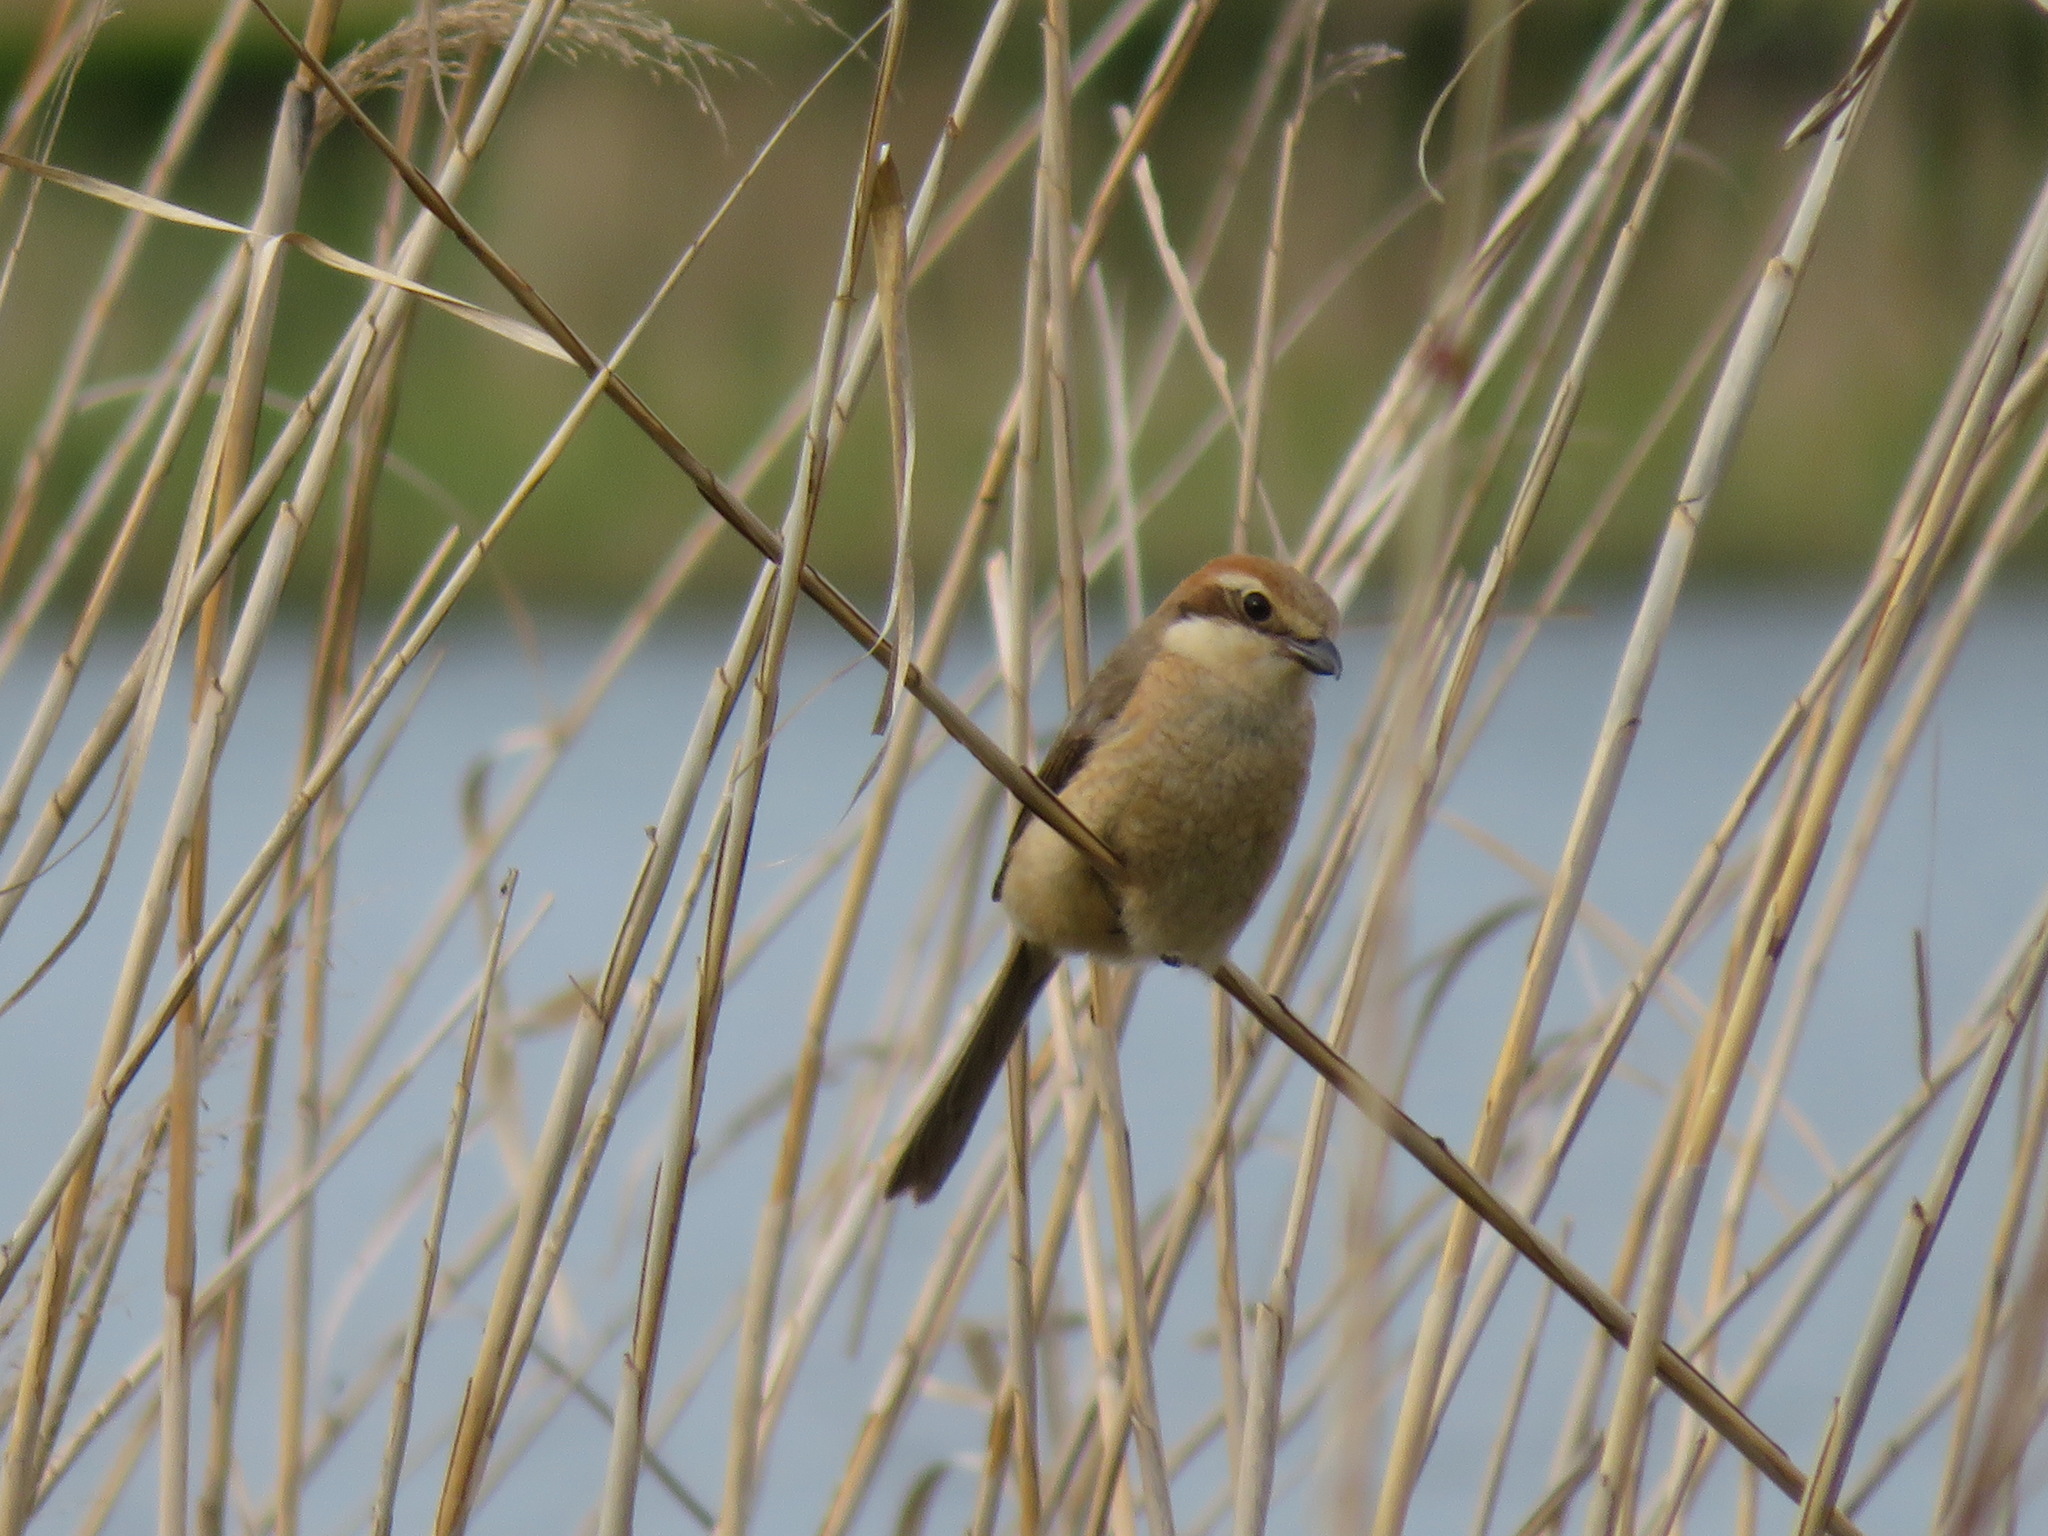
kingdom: Animalia
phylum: Chordata
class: Aves
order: Passeriformes
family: Laniidae
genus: Lanius
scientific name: Lanius bucephalus
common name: Bull-headed shrike
